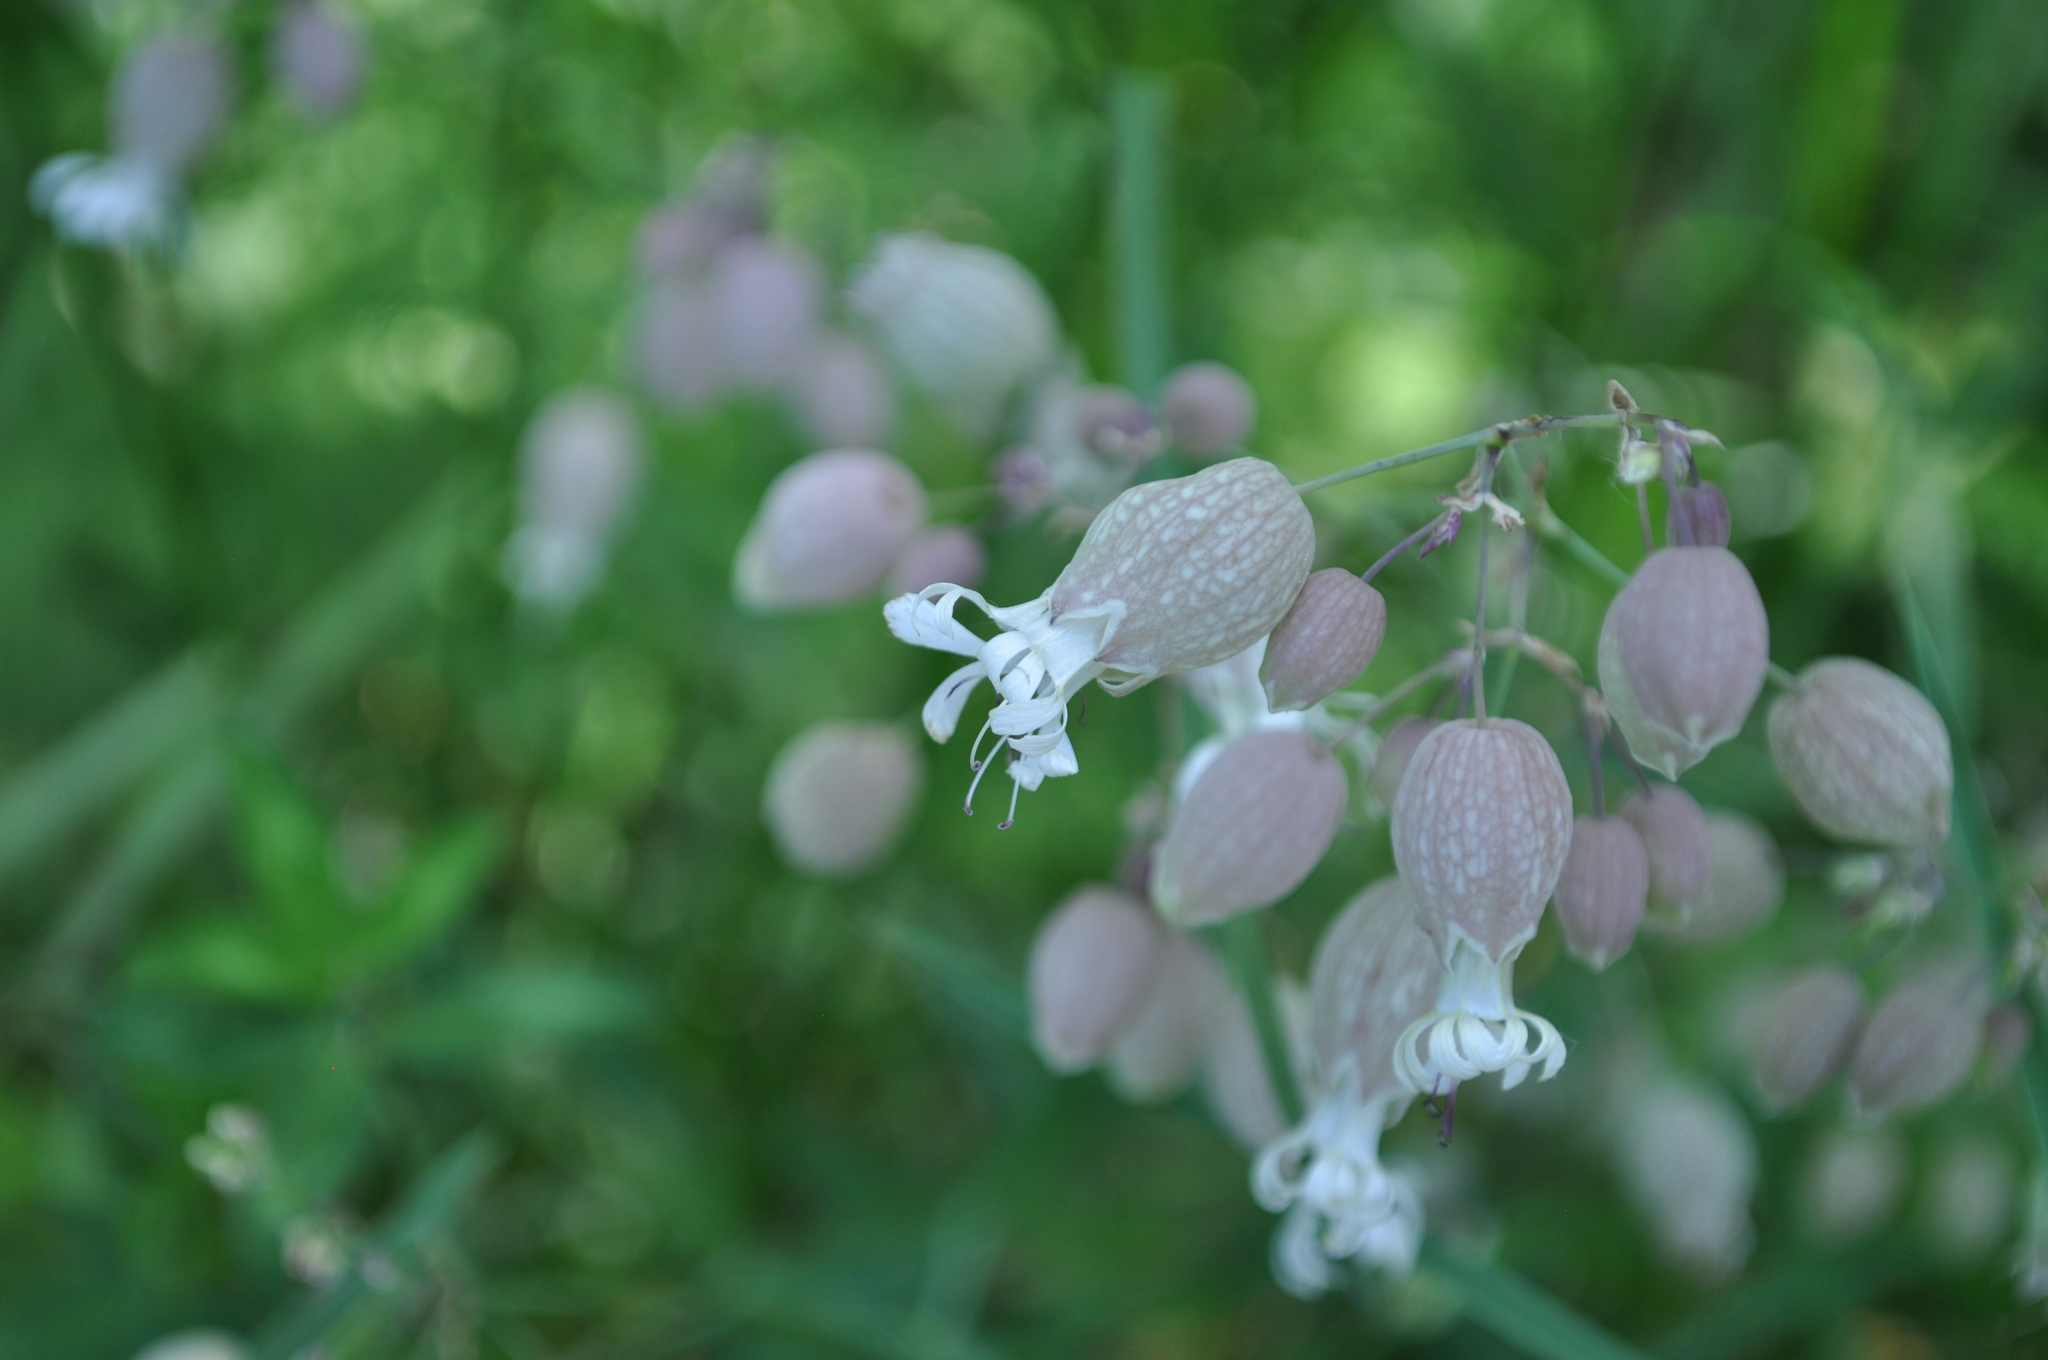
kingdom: Plantae
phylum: Tracheophyta
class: Magnoliopsida
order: Caryophyllales
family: Caryophyllaceae
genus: Silene
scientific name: Silene vulgaris
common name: Bladder campion
